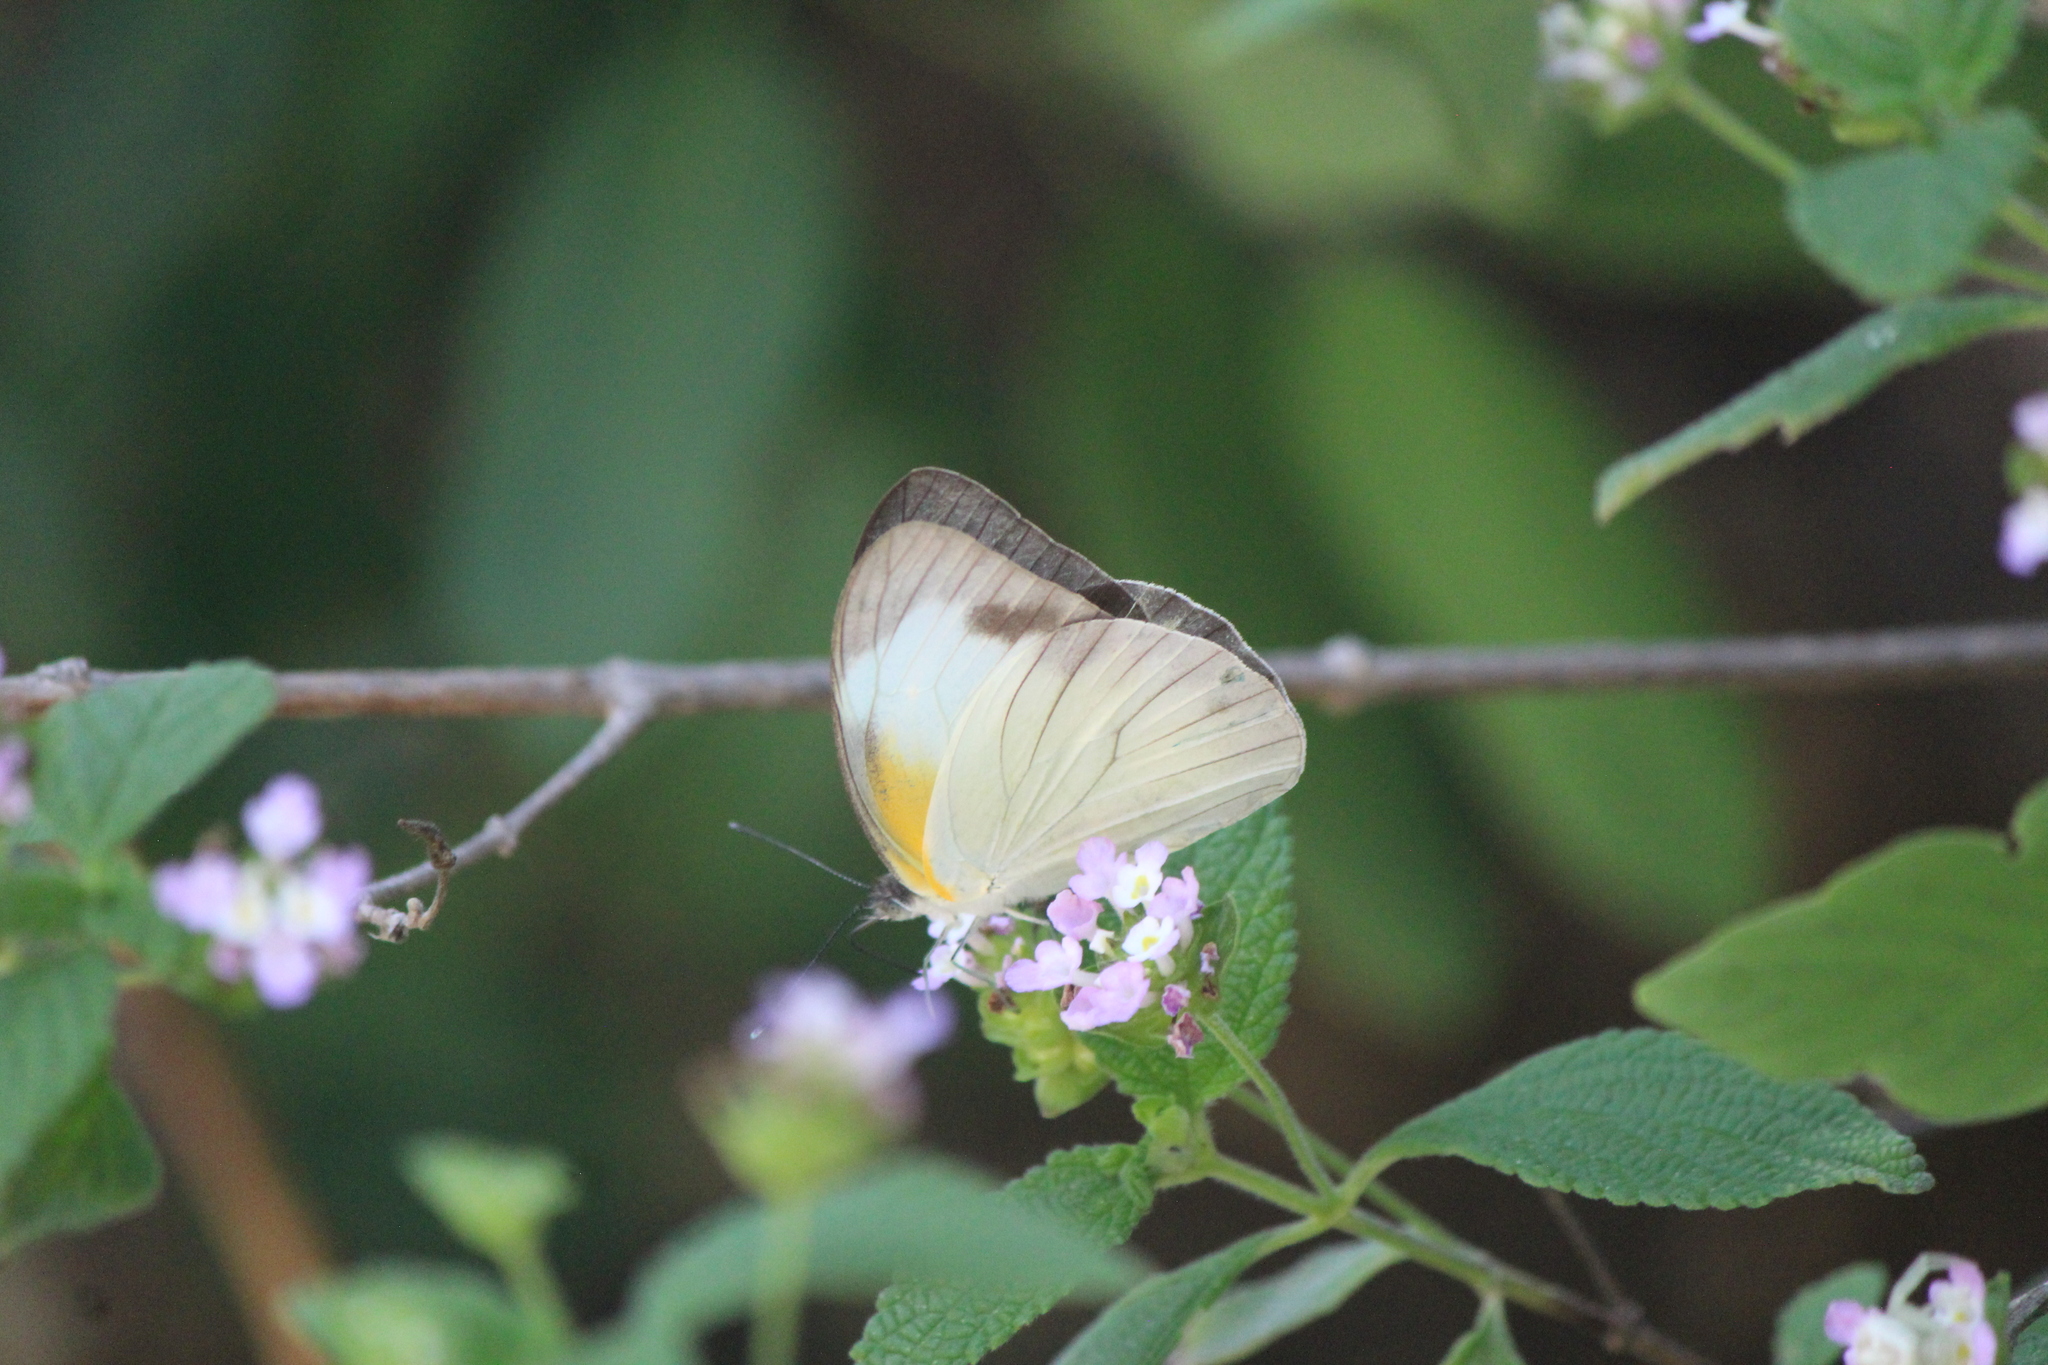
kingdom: Animalia
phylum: Arthropoda
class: Insecta
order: Lepidoptera
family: Pieridae
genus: Glutophrissa
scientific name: Glutophrissa drusilla
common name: Florida white
